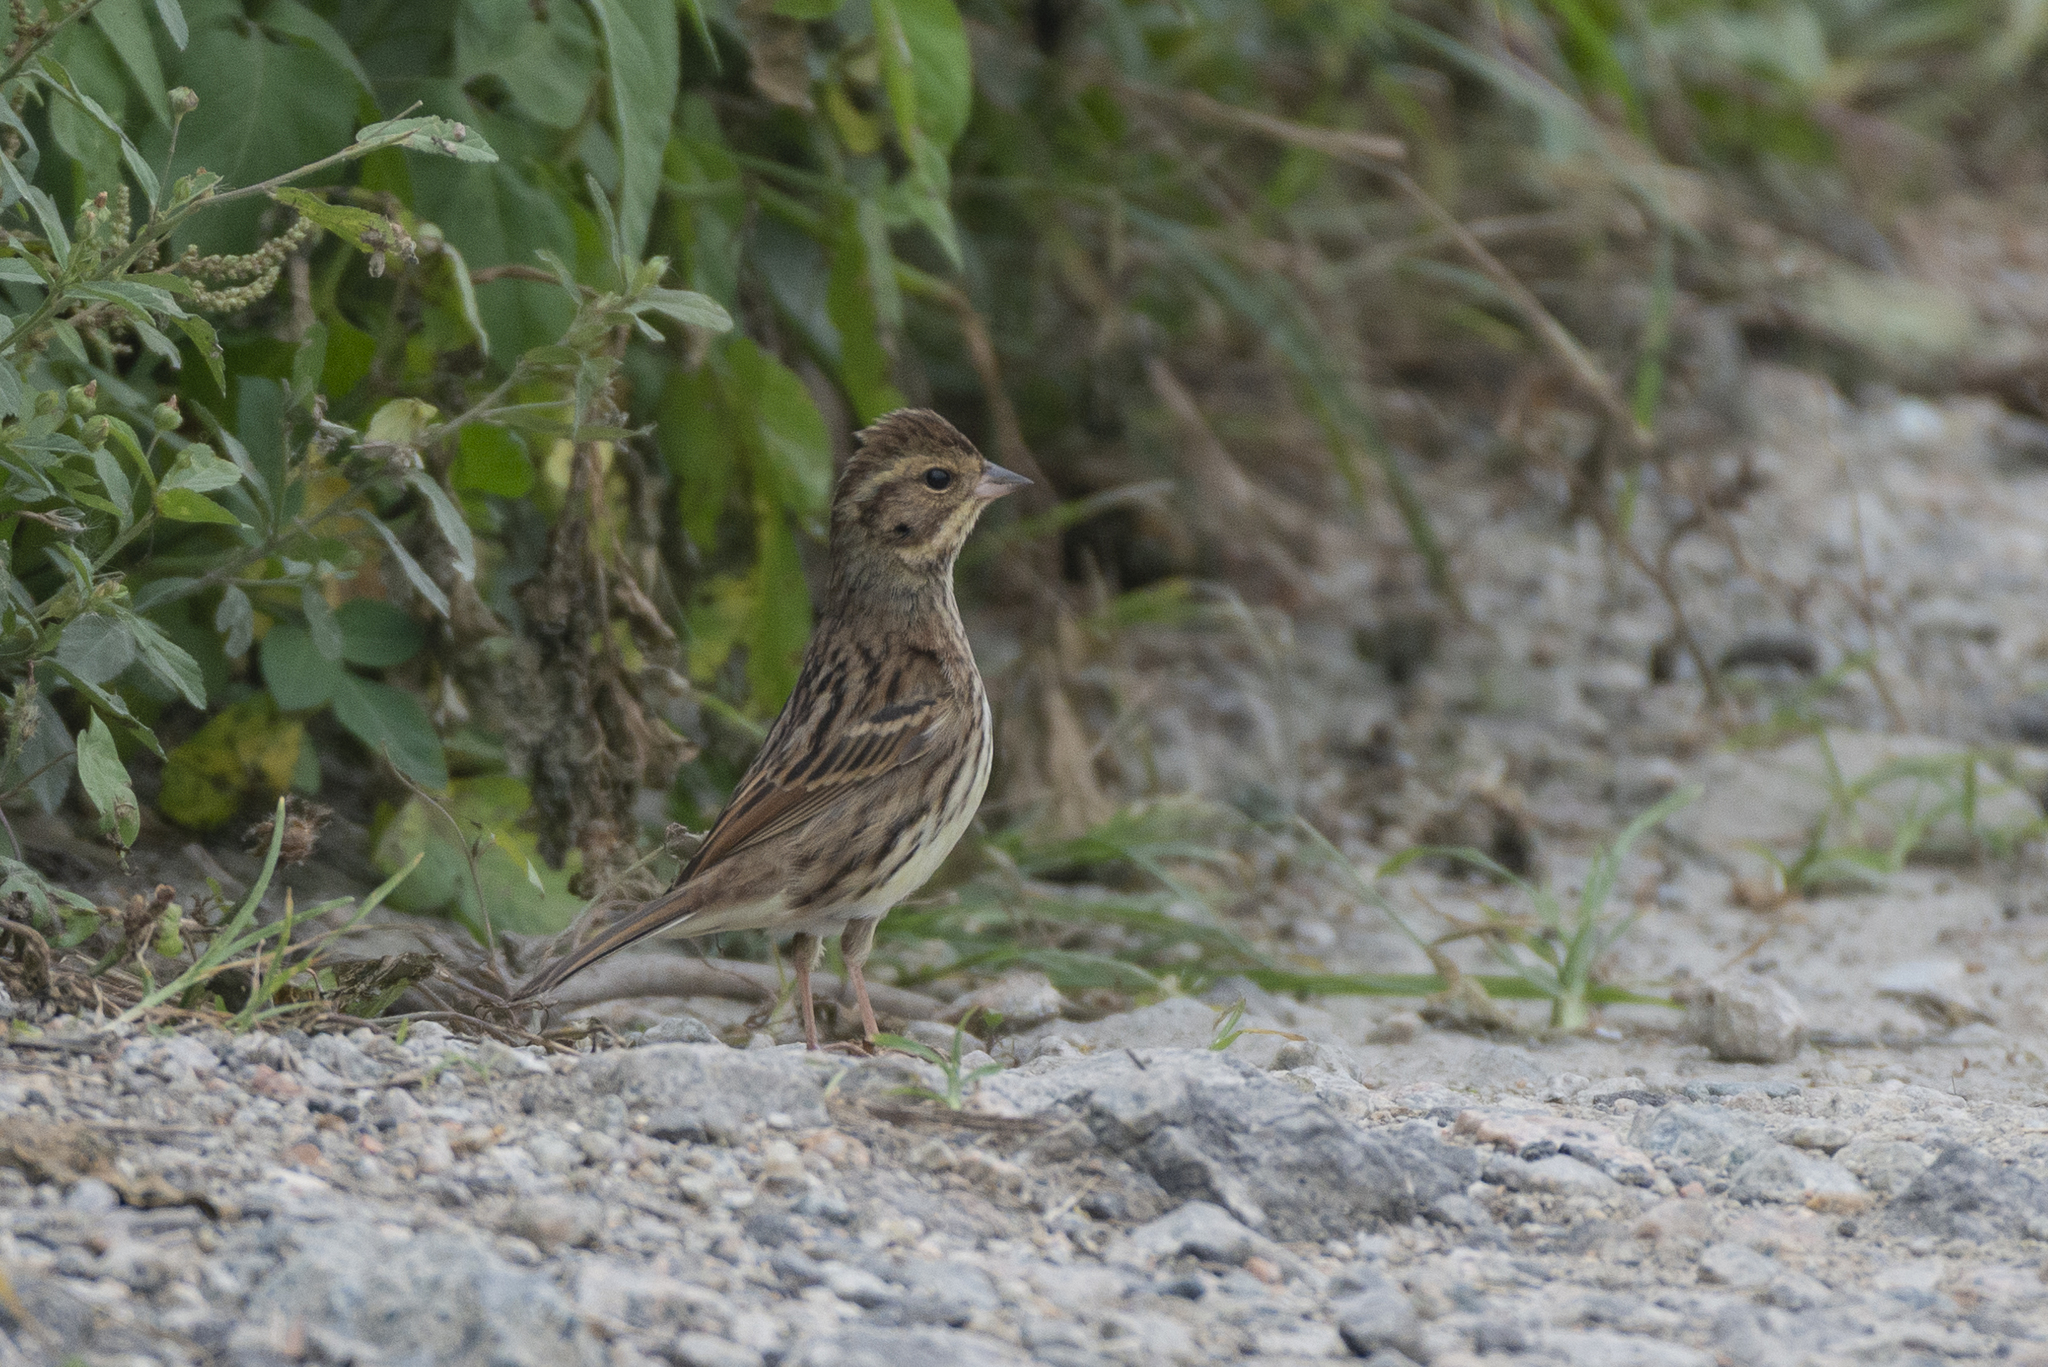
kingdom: Animalia
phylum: Chordata
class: Aves
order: Passeriformes
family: Emberizidae
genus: Emberiza
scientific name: Emberiza spodocephala
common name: Black-faced bunting
